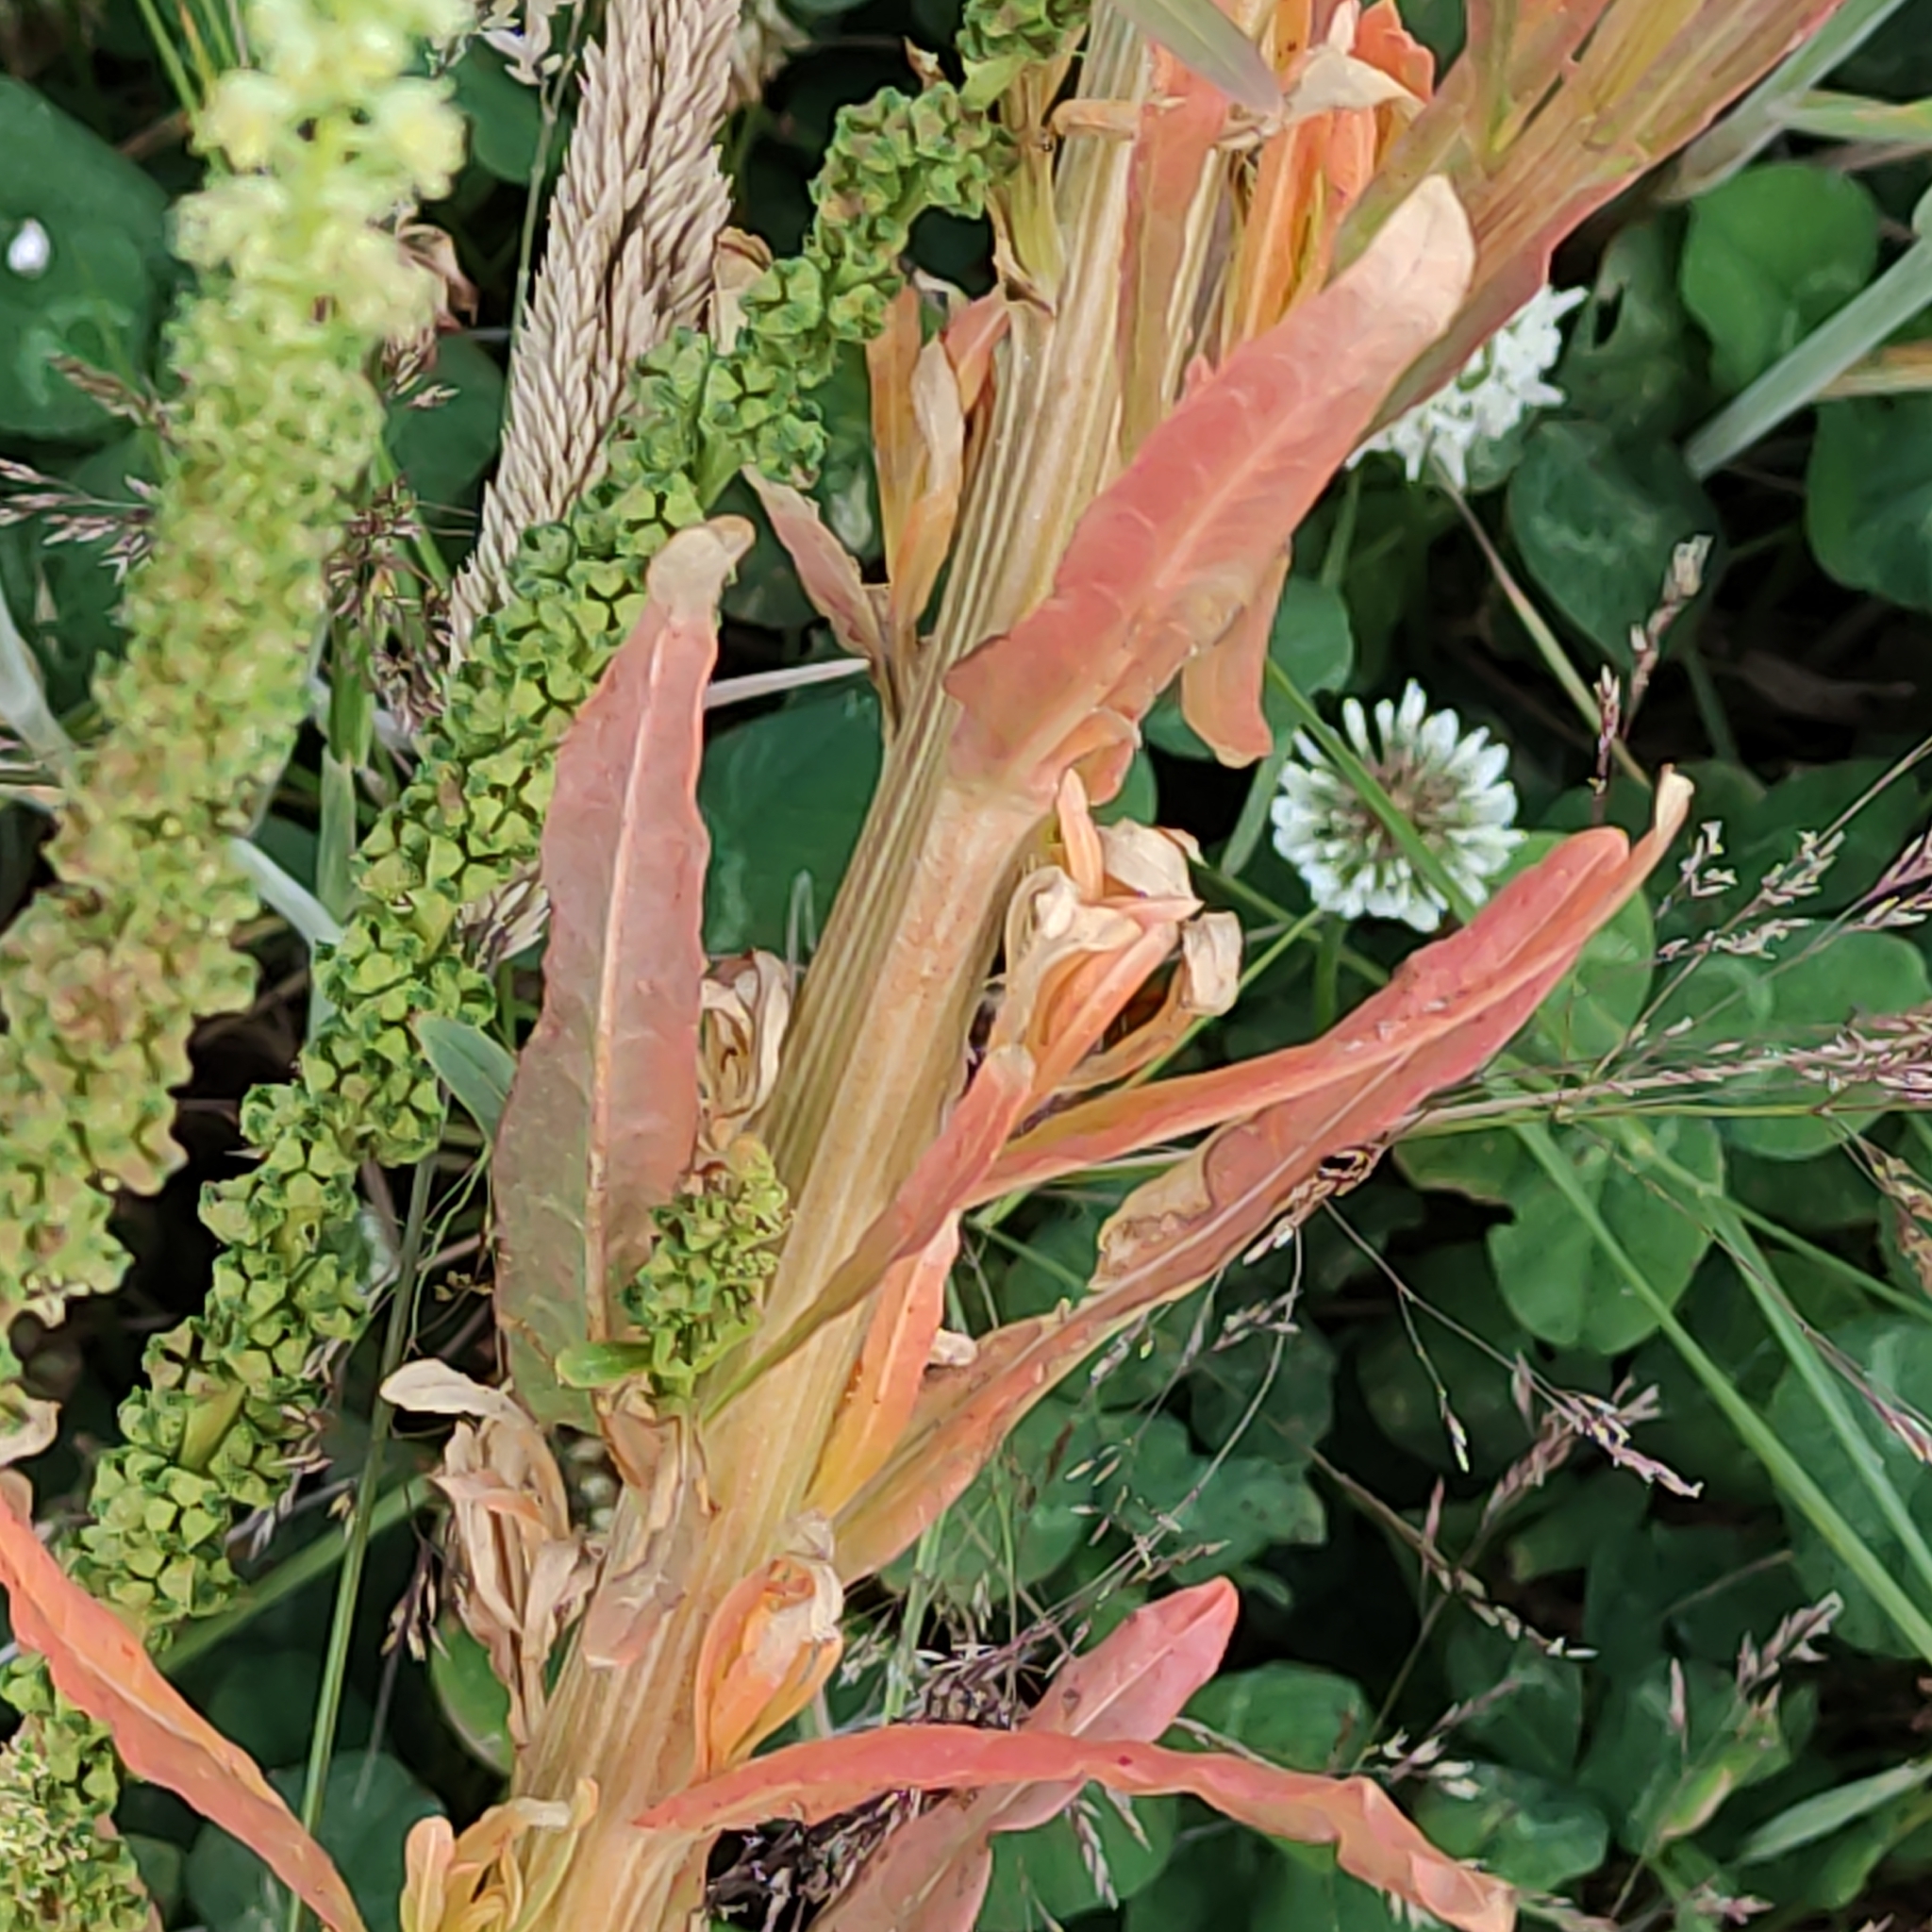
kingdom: Plantae
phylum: Tracheophyta
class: Magnoliopsida
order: Brassicales
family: Resedaceae
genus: Reseda
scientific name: Reseda luteola
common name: Weld
